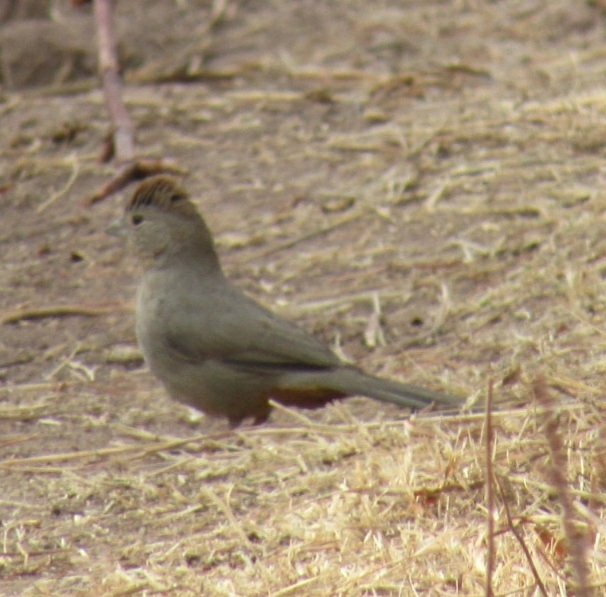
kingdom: Animalia
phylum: Chordata
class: Aves
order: Passeriformes
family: Passerellidae
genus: Melozone
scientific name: Melozone fusca
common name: Canyon towhee
